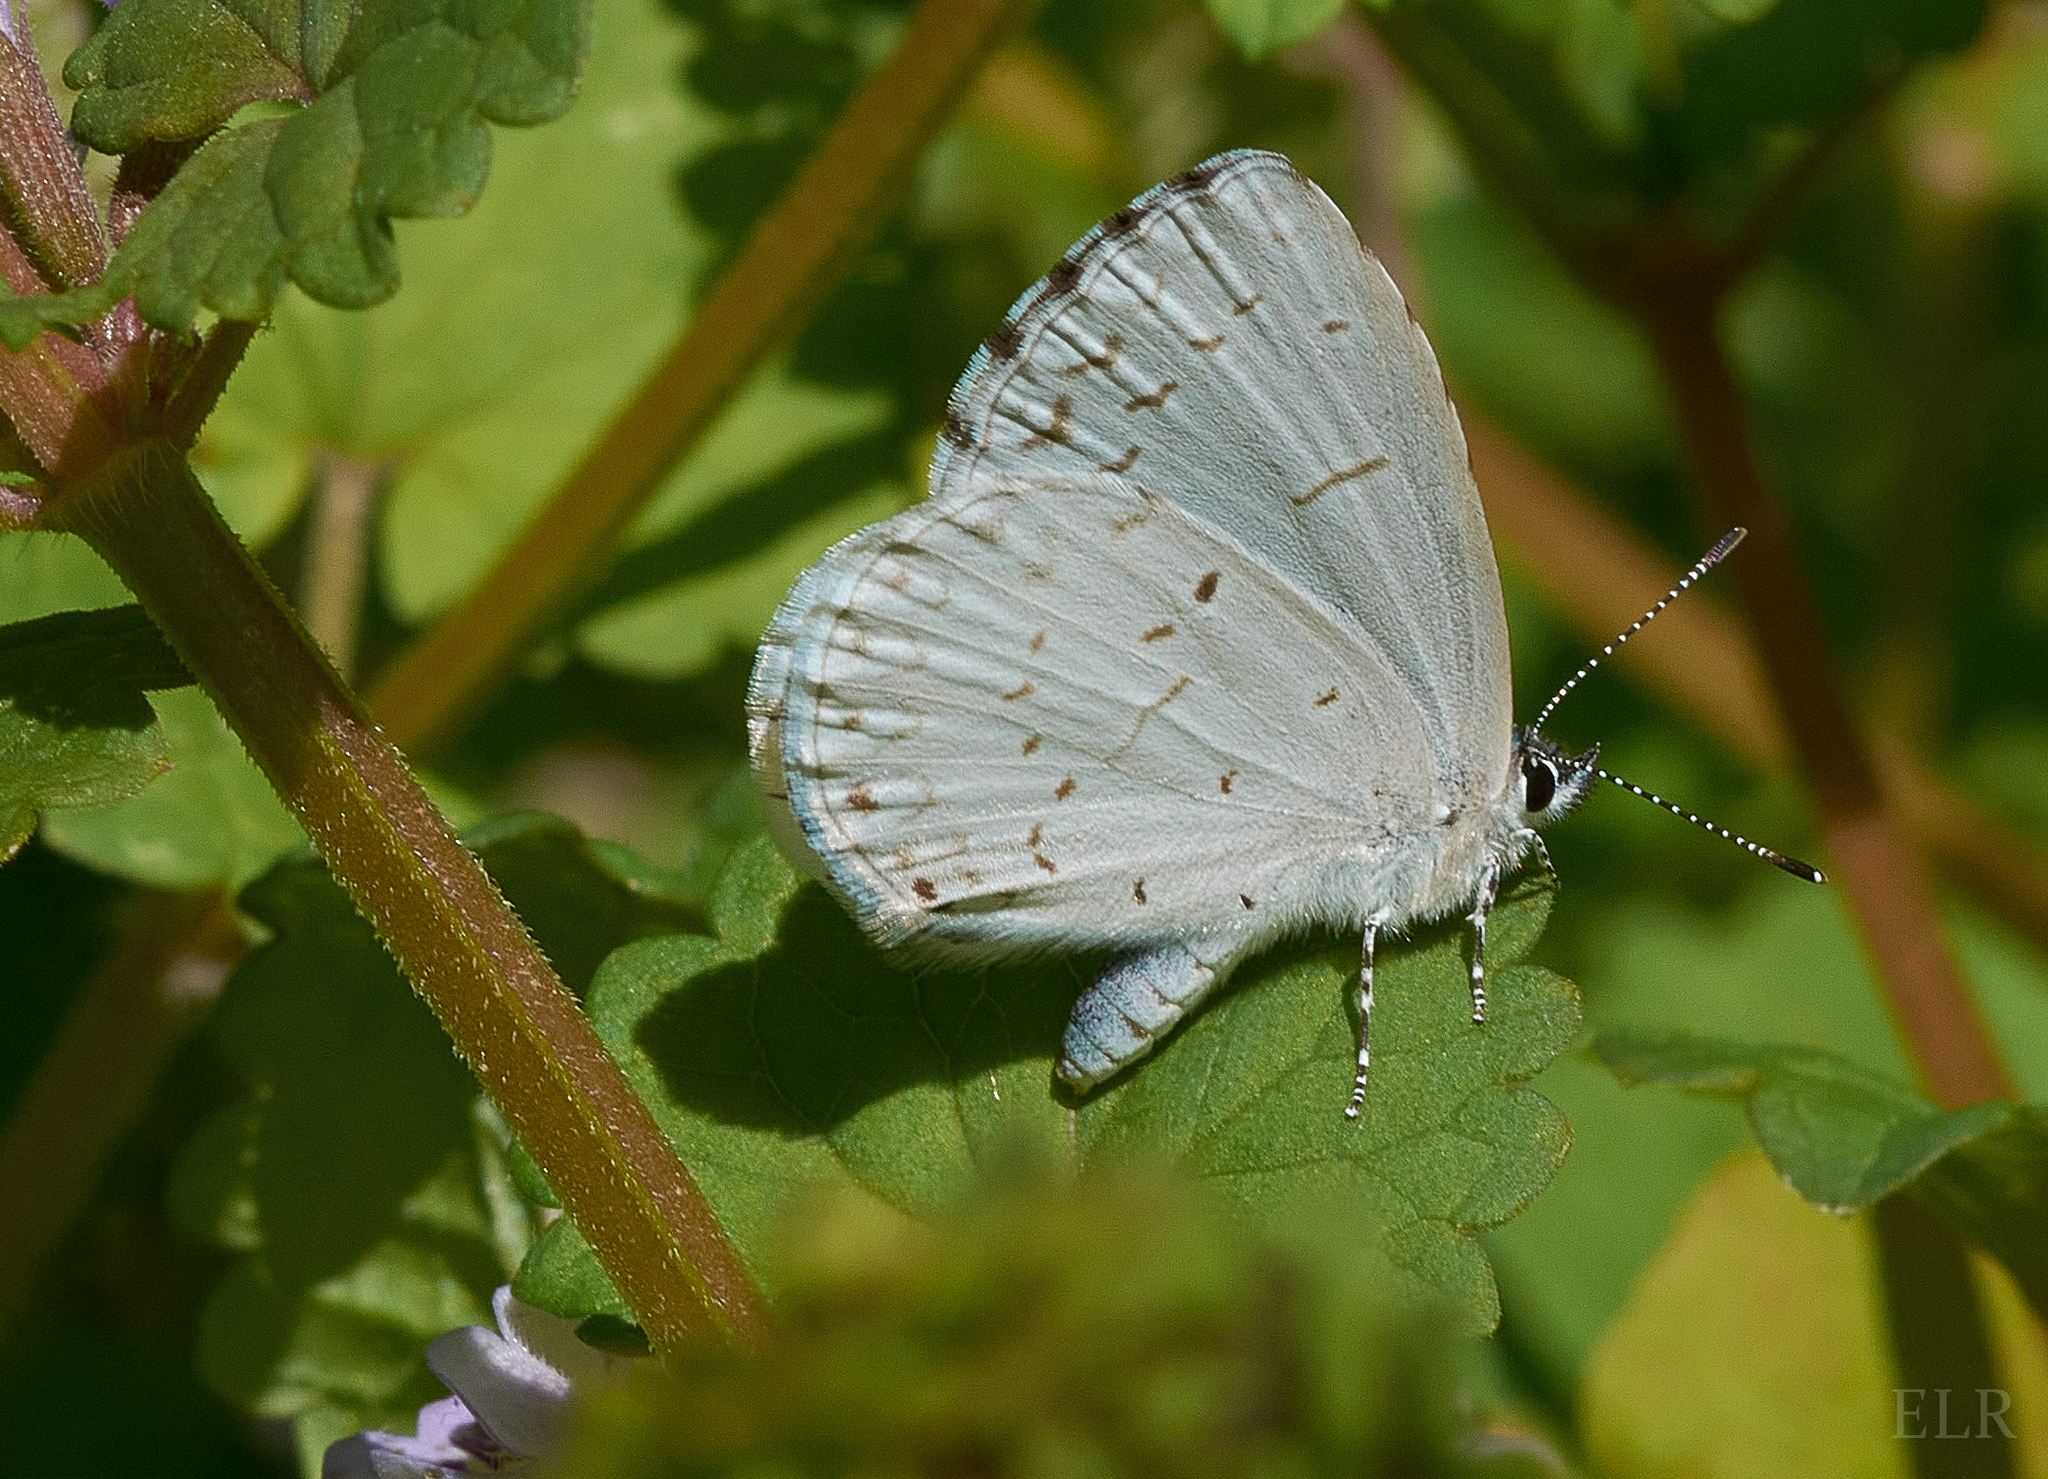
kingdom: Animalia
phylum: Arthropoda
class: Insecta
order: Lepidoptera
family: Lycaenidae
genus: Celastrina
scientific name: Celastrina neglectamajor
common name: Appalachian azure
